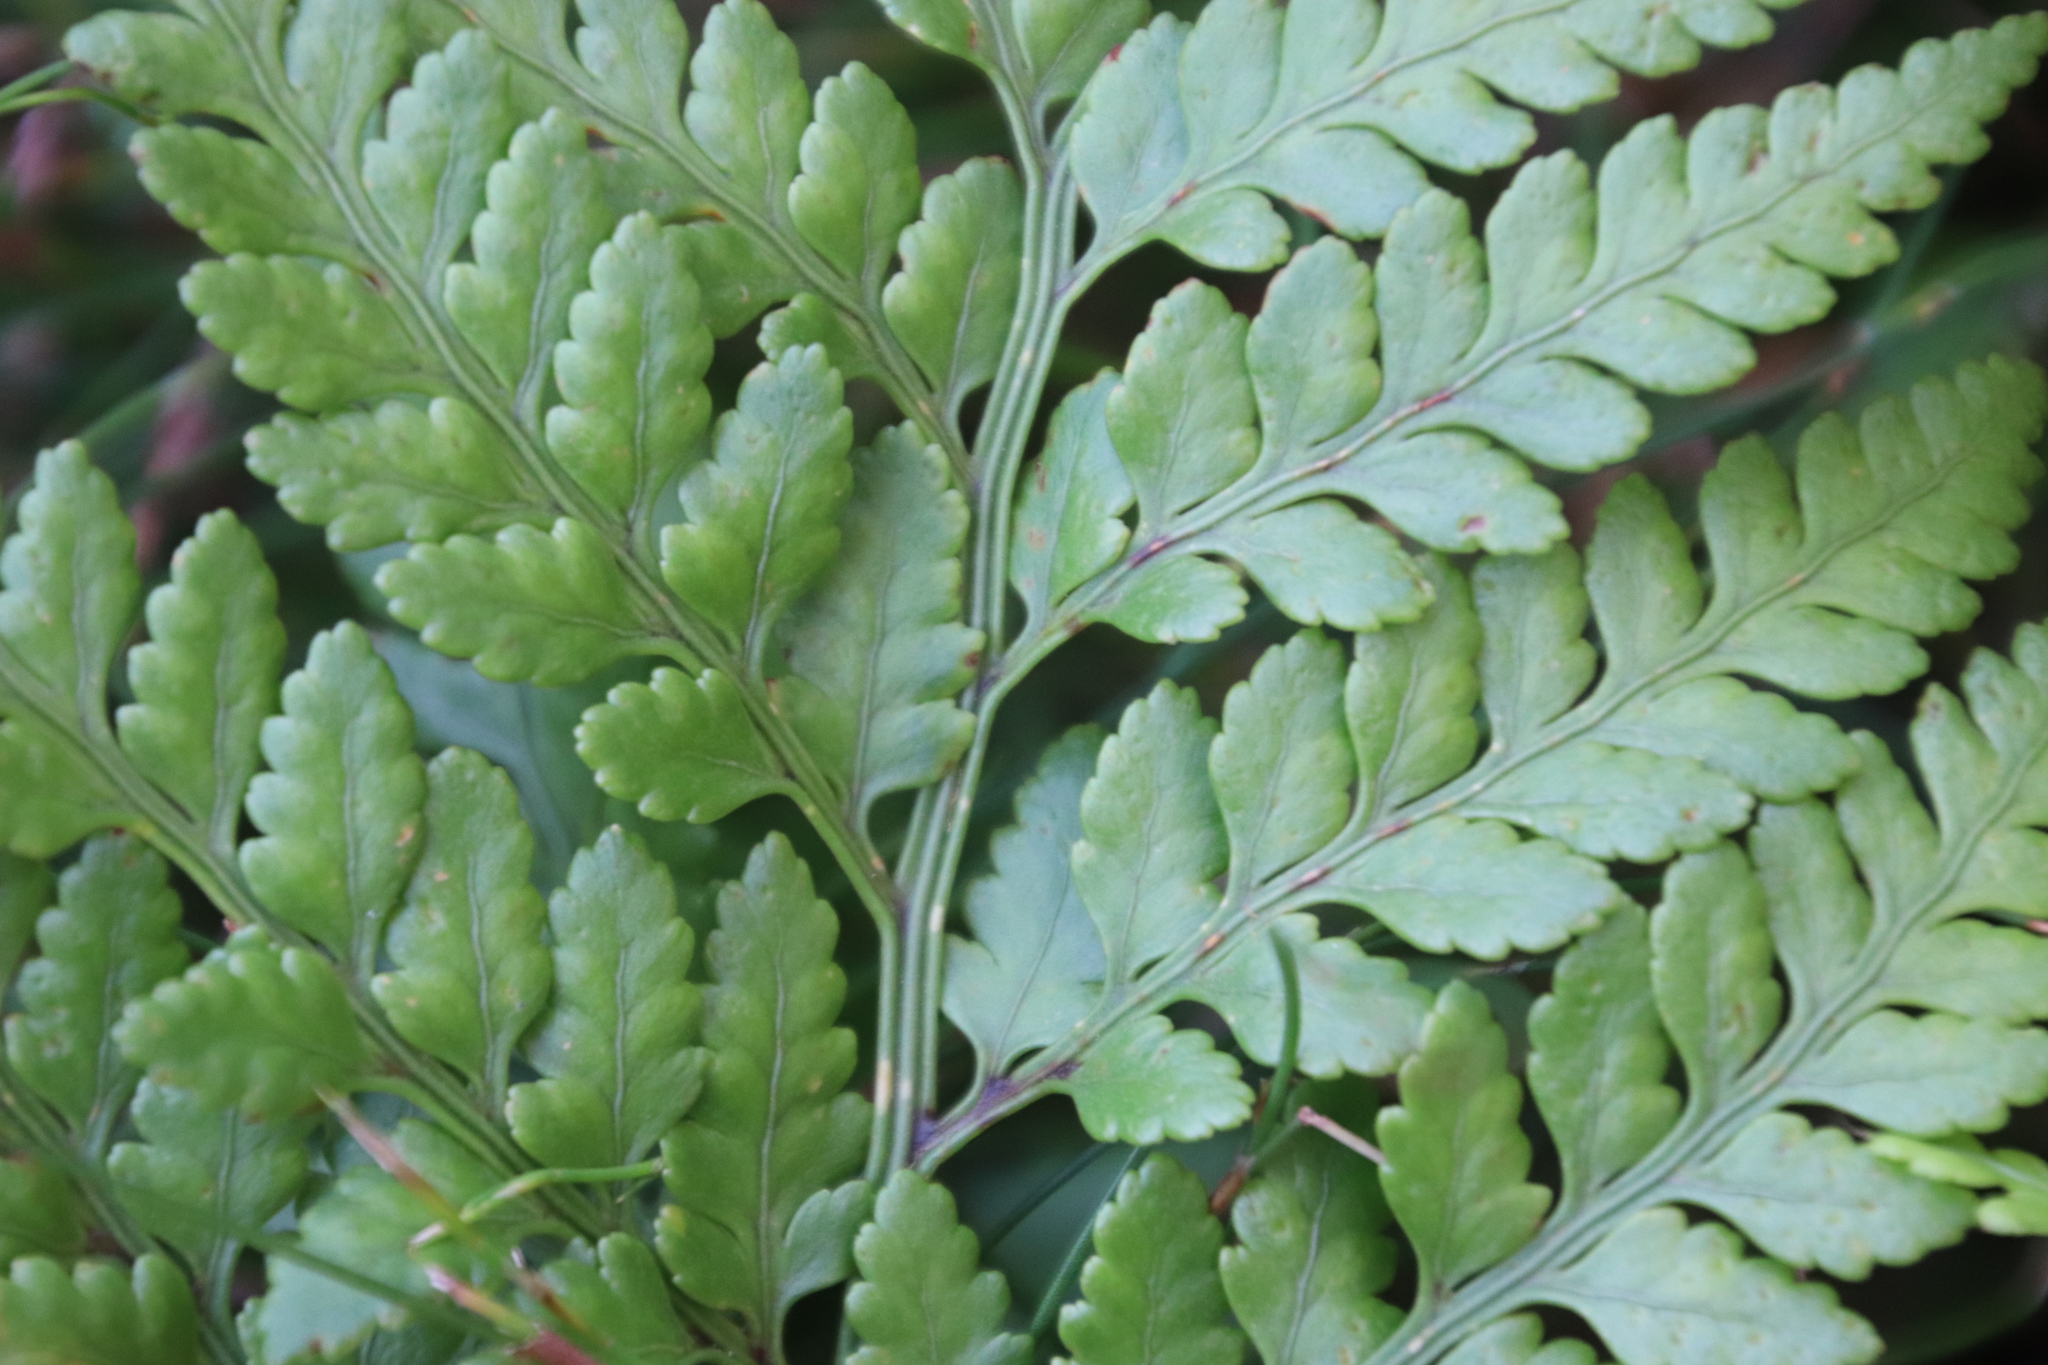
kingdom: Plantae
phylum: Tracheophyta
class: Polypodiopsida
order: Polypodiales
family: Dryopteridaceae
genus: Rumohra
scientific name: Rumohra adiantiformis
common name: Leather fern
